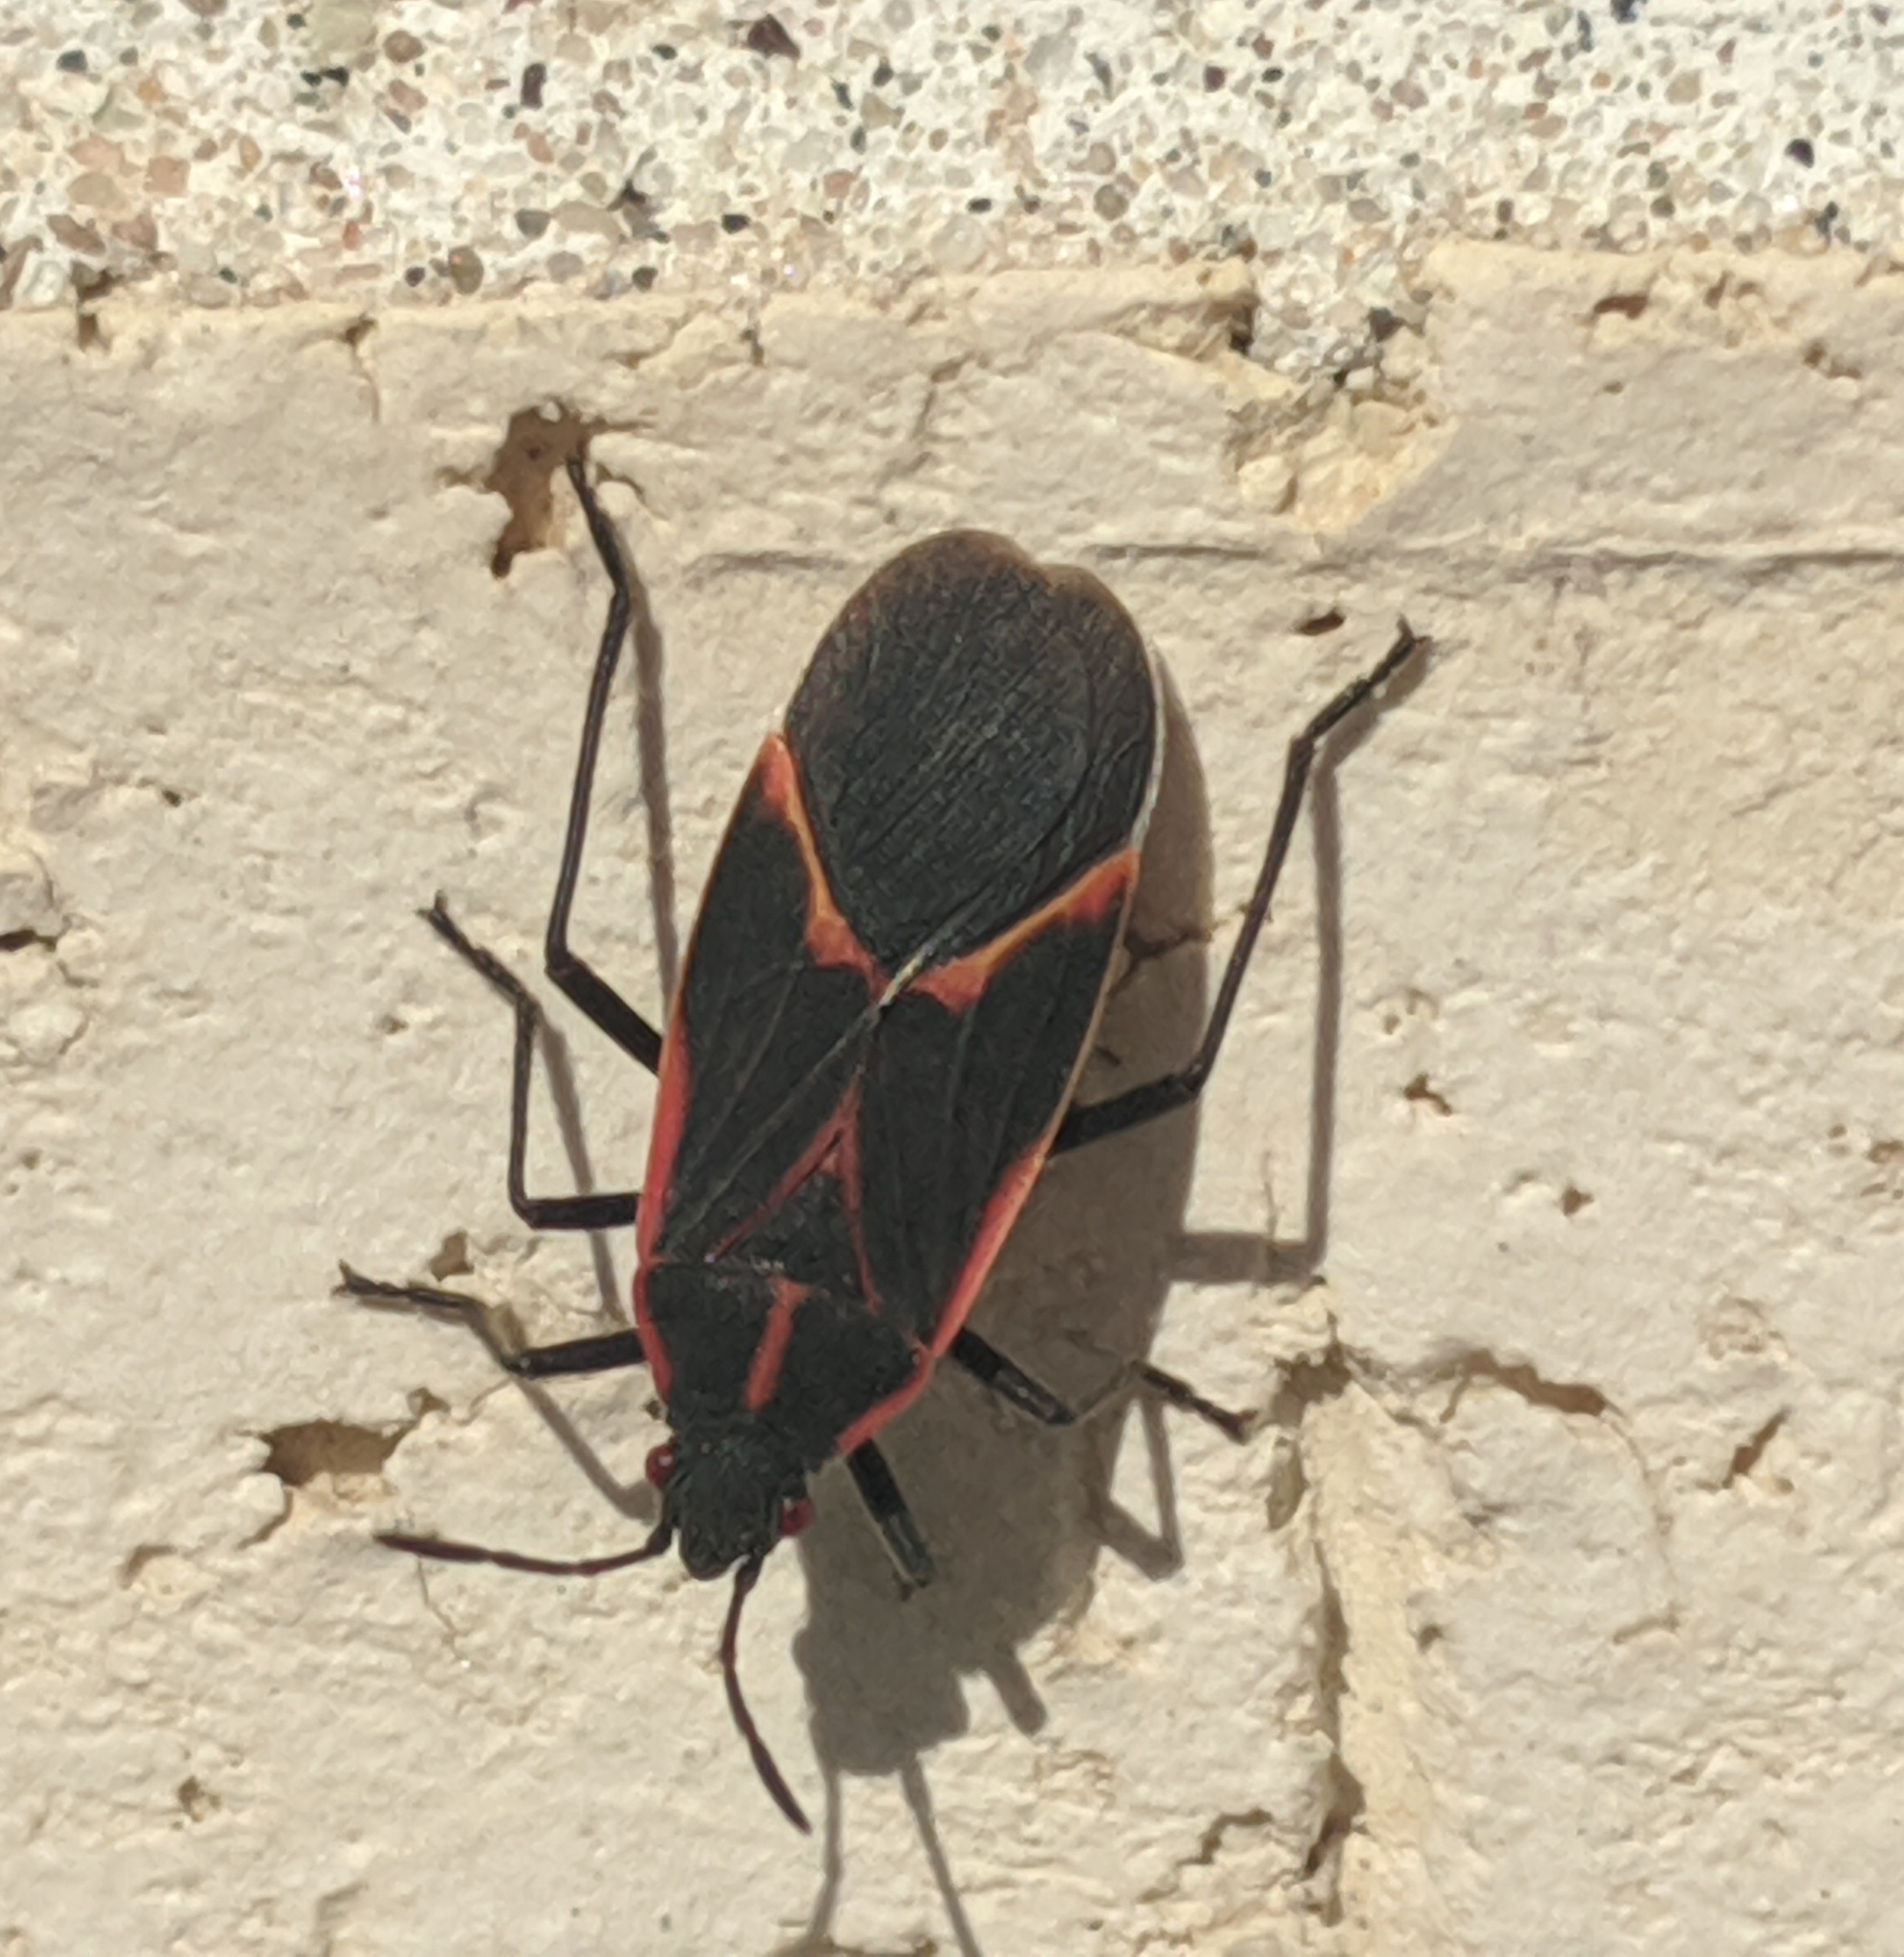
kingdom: Animalia
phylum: Arthropoda
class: Insecta
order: Hemiptera
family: Rhopalidae
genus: Boisea
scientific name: Boisea trivittata
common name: Boxelder bug
